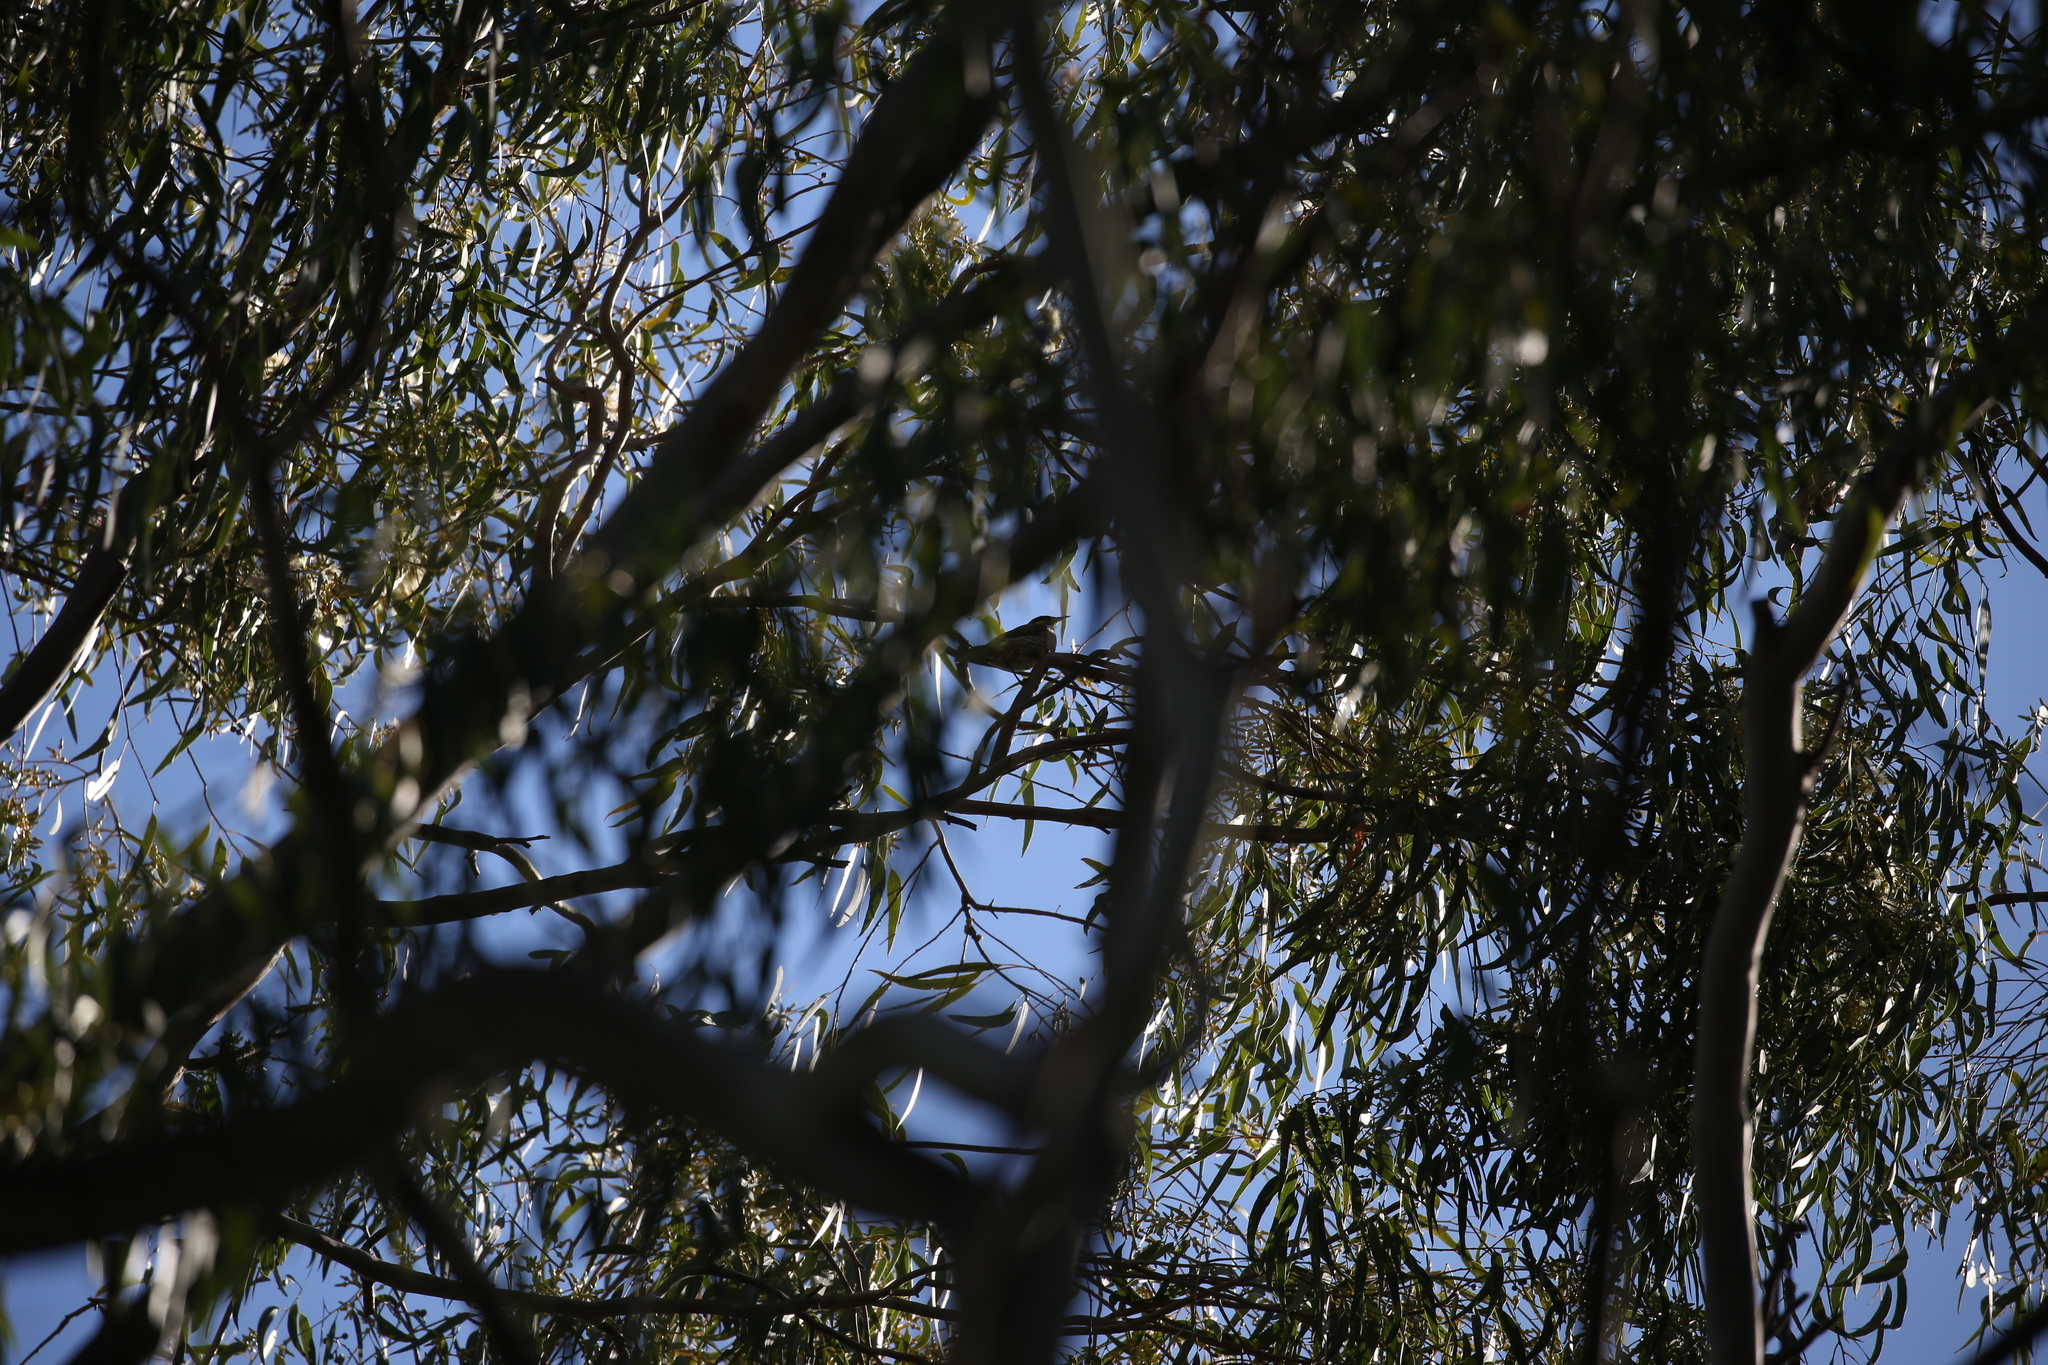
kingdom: Animalia
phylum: Chordata
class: Aves
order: Passeriformes
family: Meliphagidae
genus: Gavicalis
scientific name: Gavicalis fasciogularis
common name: Mangrove honeyeater
